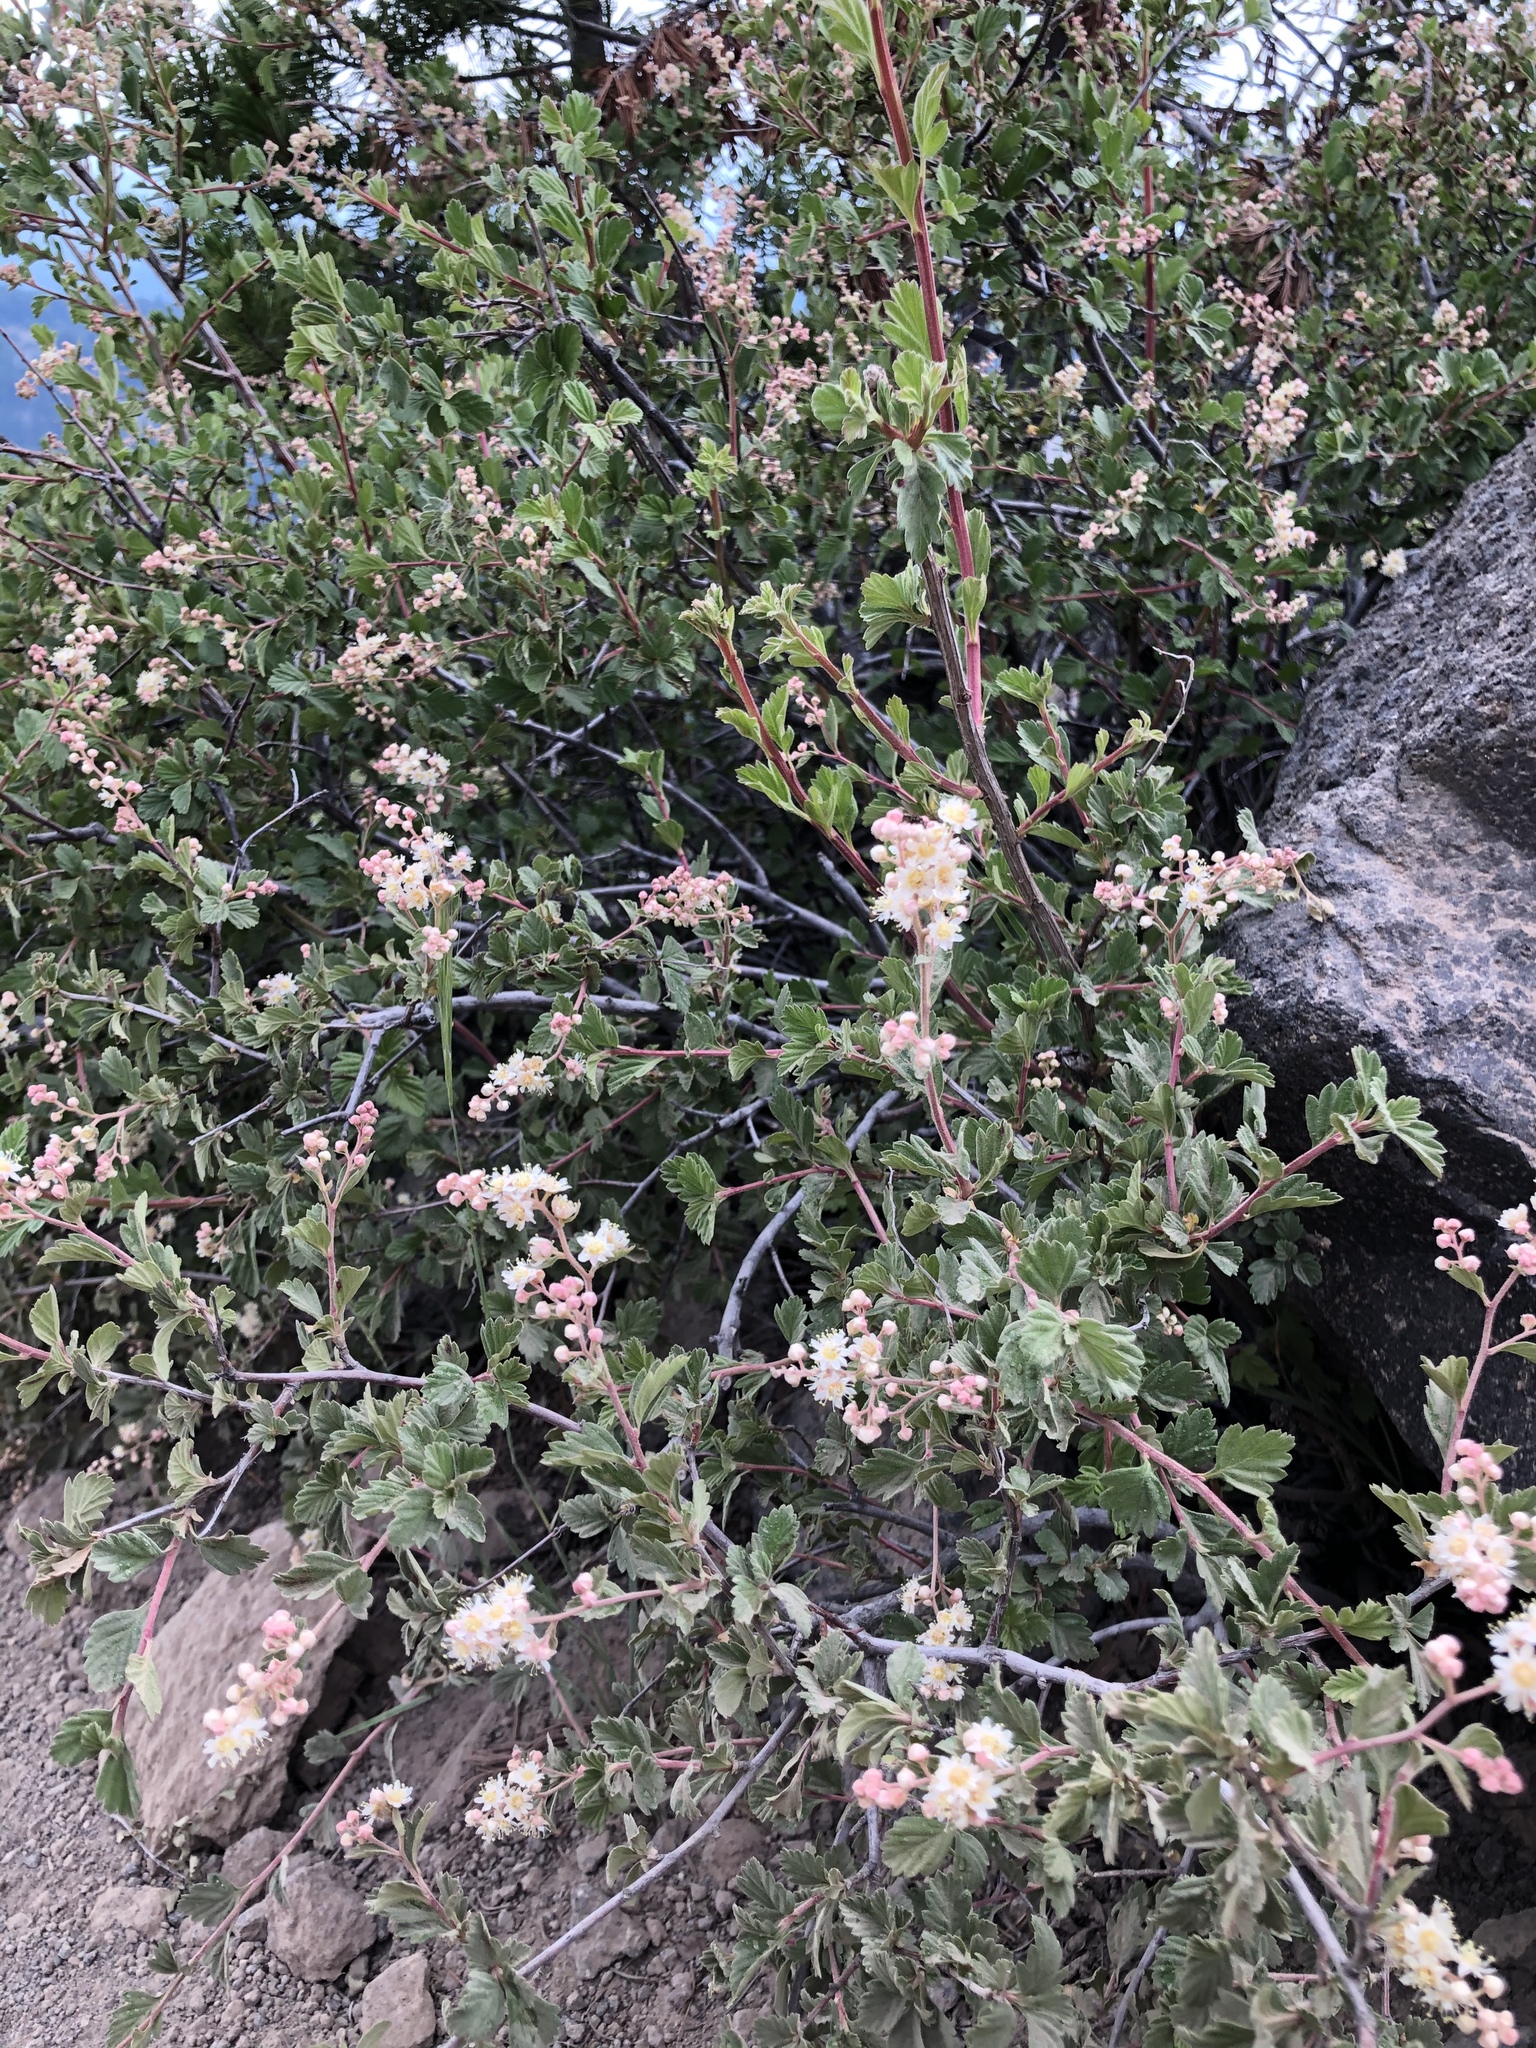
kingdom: Plantae
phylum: Tracheophyta
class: Magnoliopsida
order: Rosales
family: Rosaceae
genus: Holodiscus
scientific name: Holodiscus discolor
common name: Oceanspray
